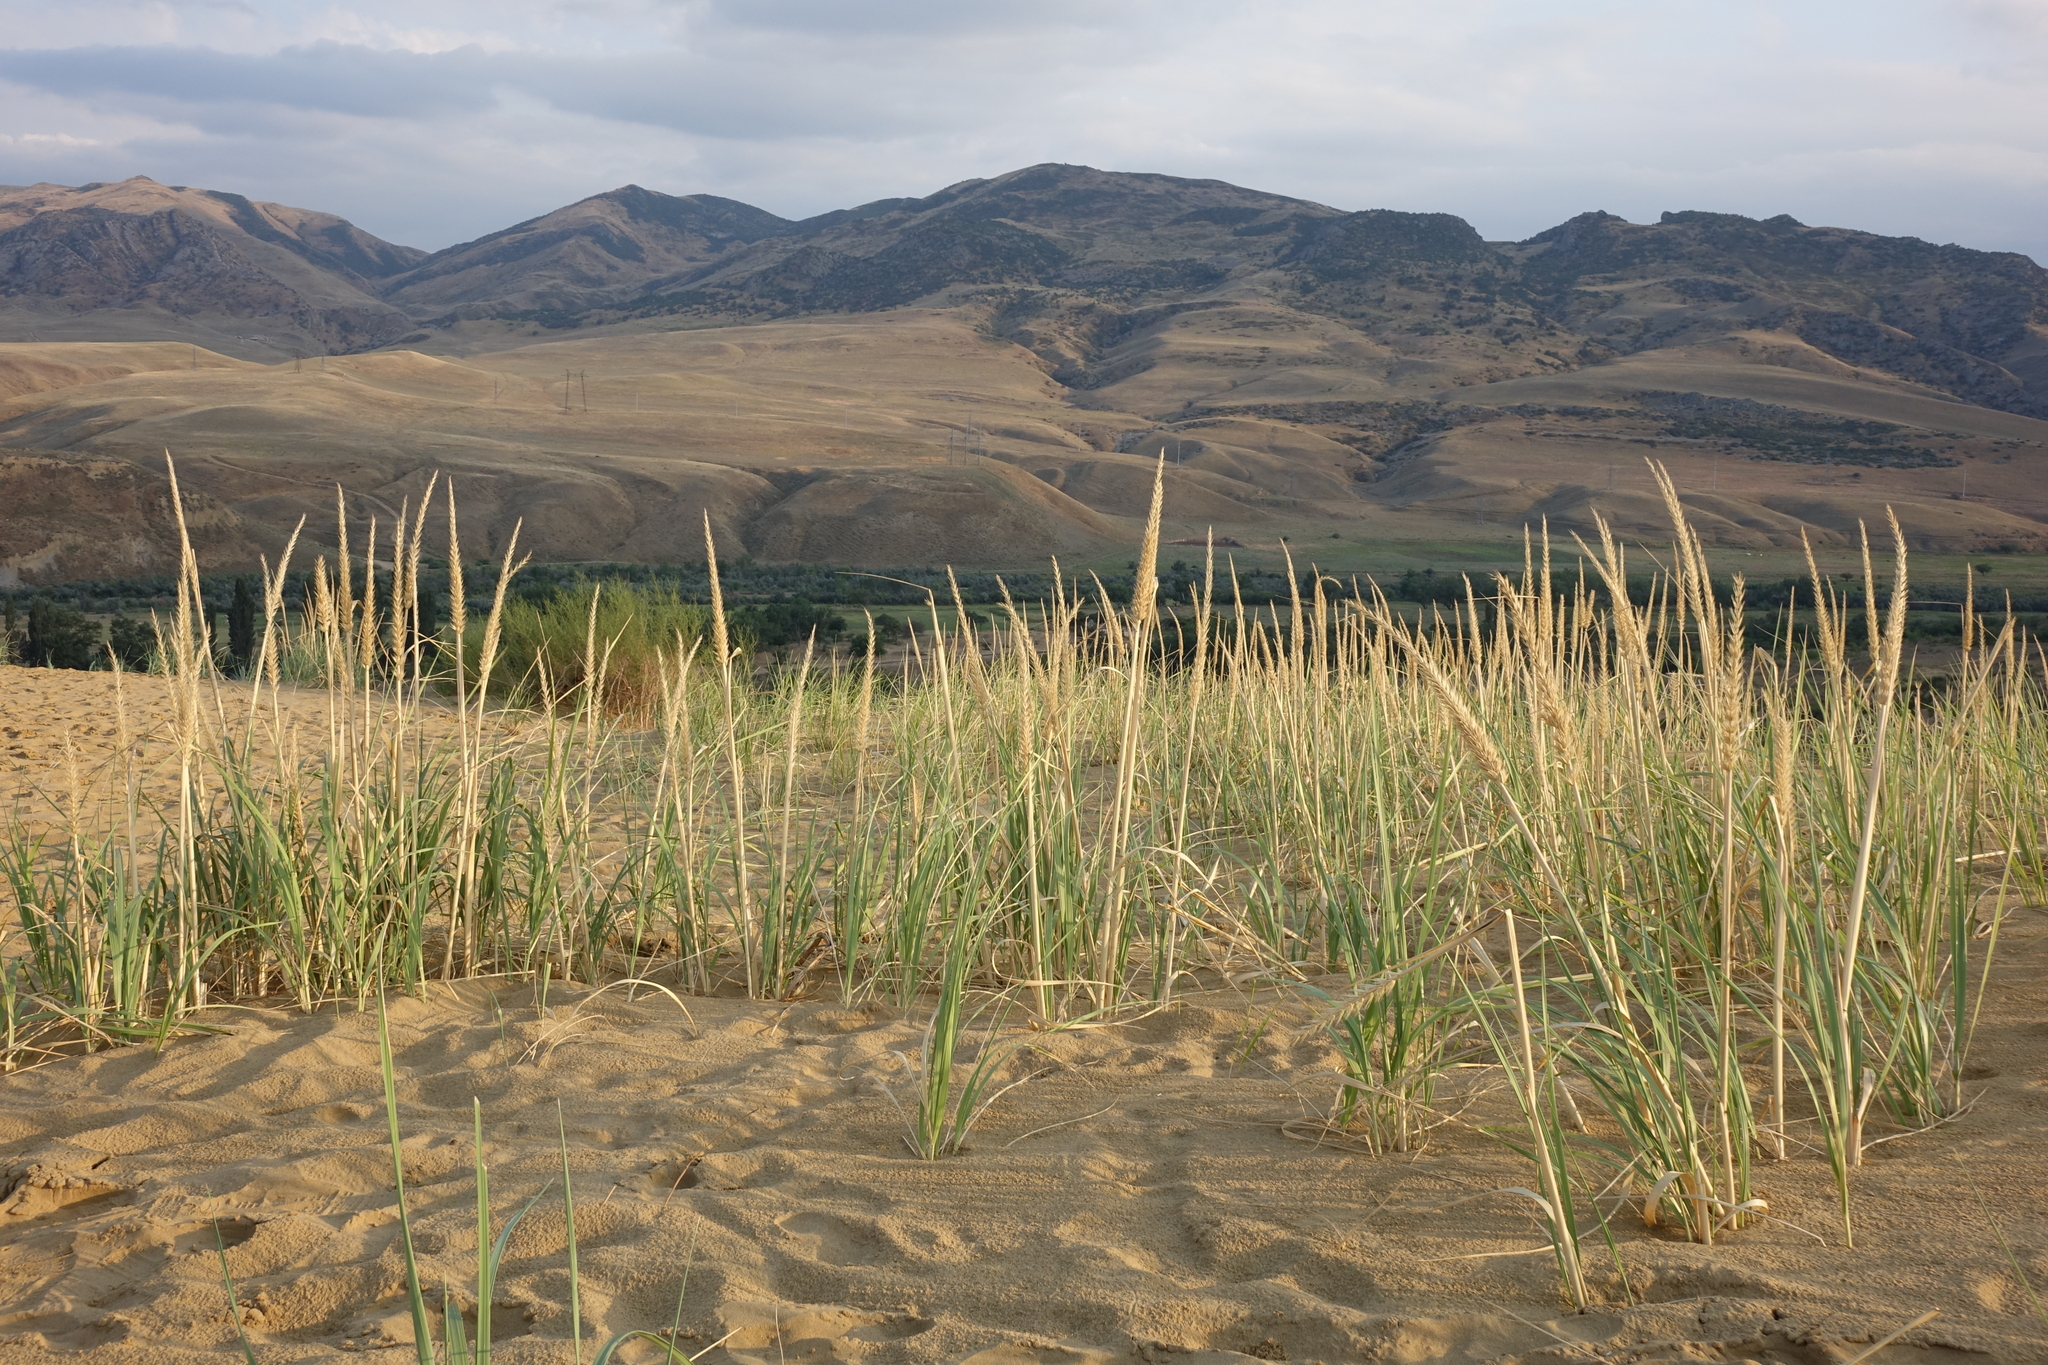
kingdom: Plantae
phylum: Tracheophyta
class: Liliopsida
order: Poales
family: Poaceae
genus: Leymus
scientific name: Leymus racemosus
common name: Mammoth wildrye
